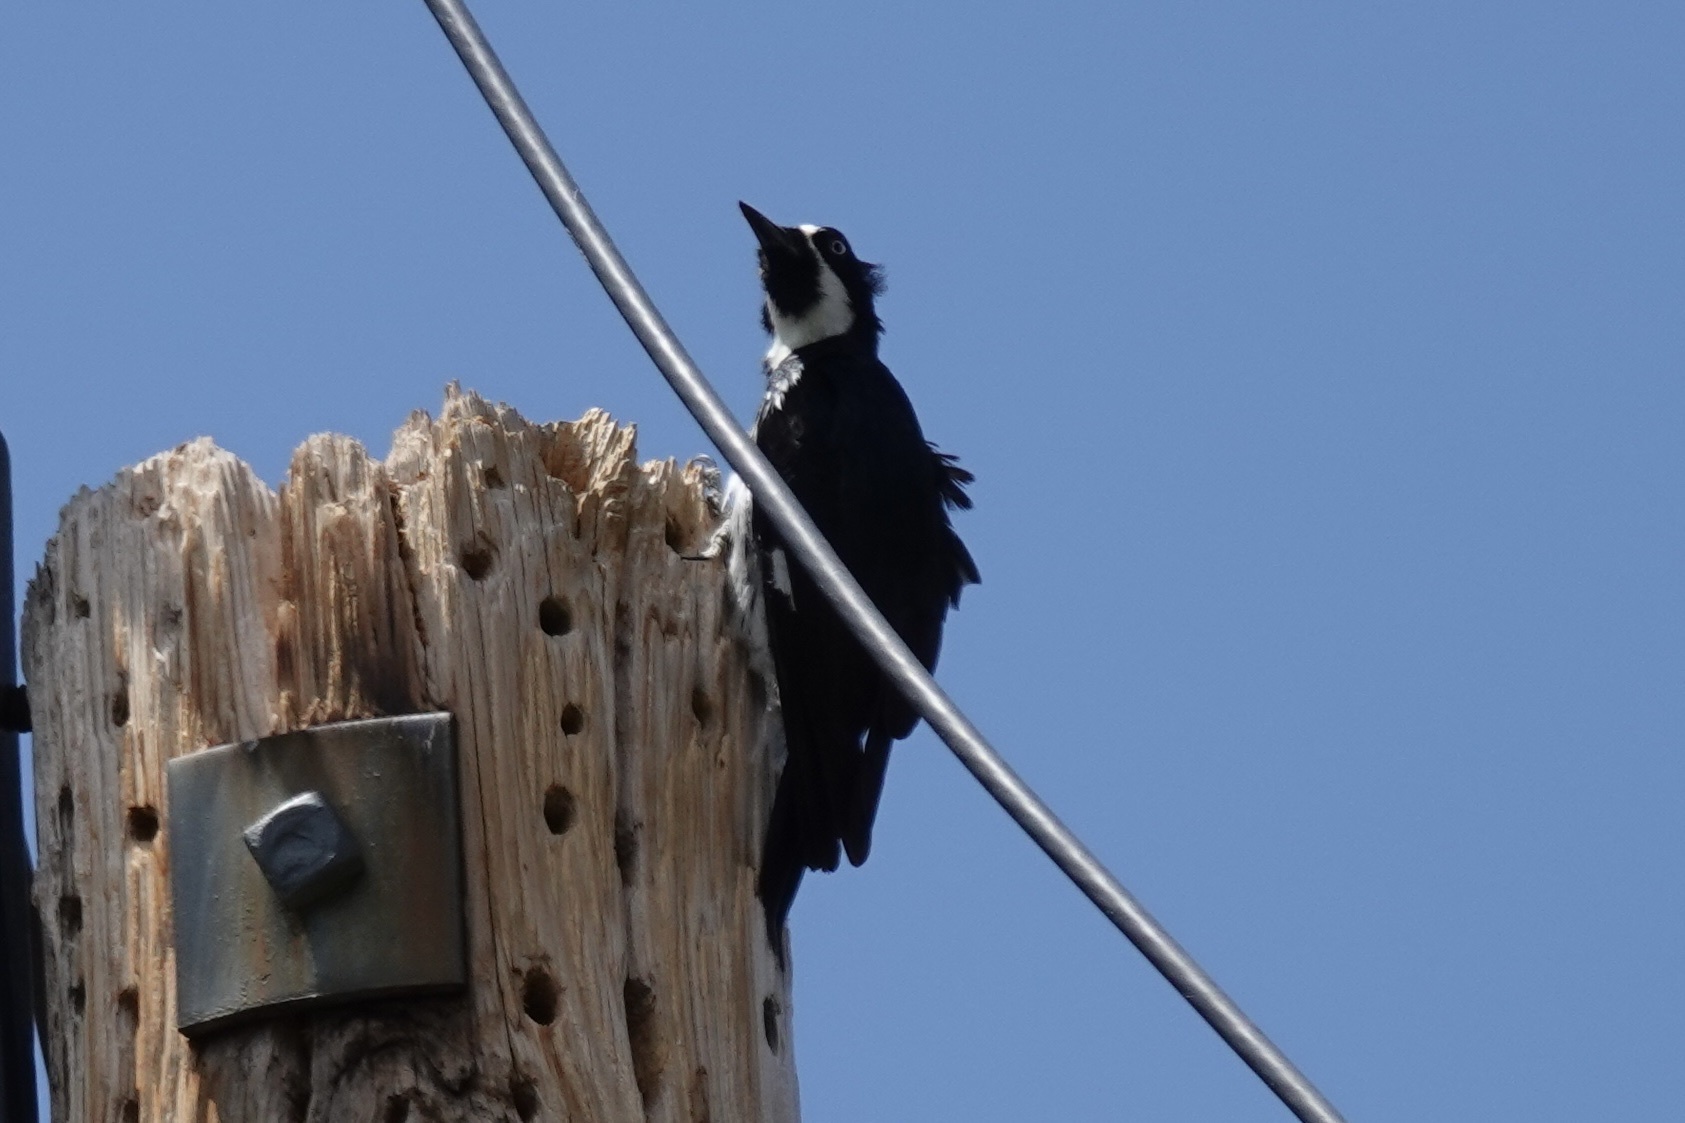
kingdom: Animalia
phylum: Chordata
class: Aves
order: Piciformes
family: Picidae
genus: Melanerpes
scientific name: Melanerpes formicivorus
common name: Acorn woodpecker
